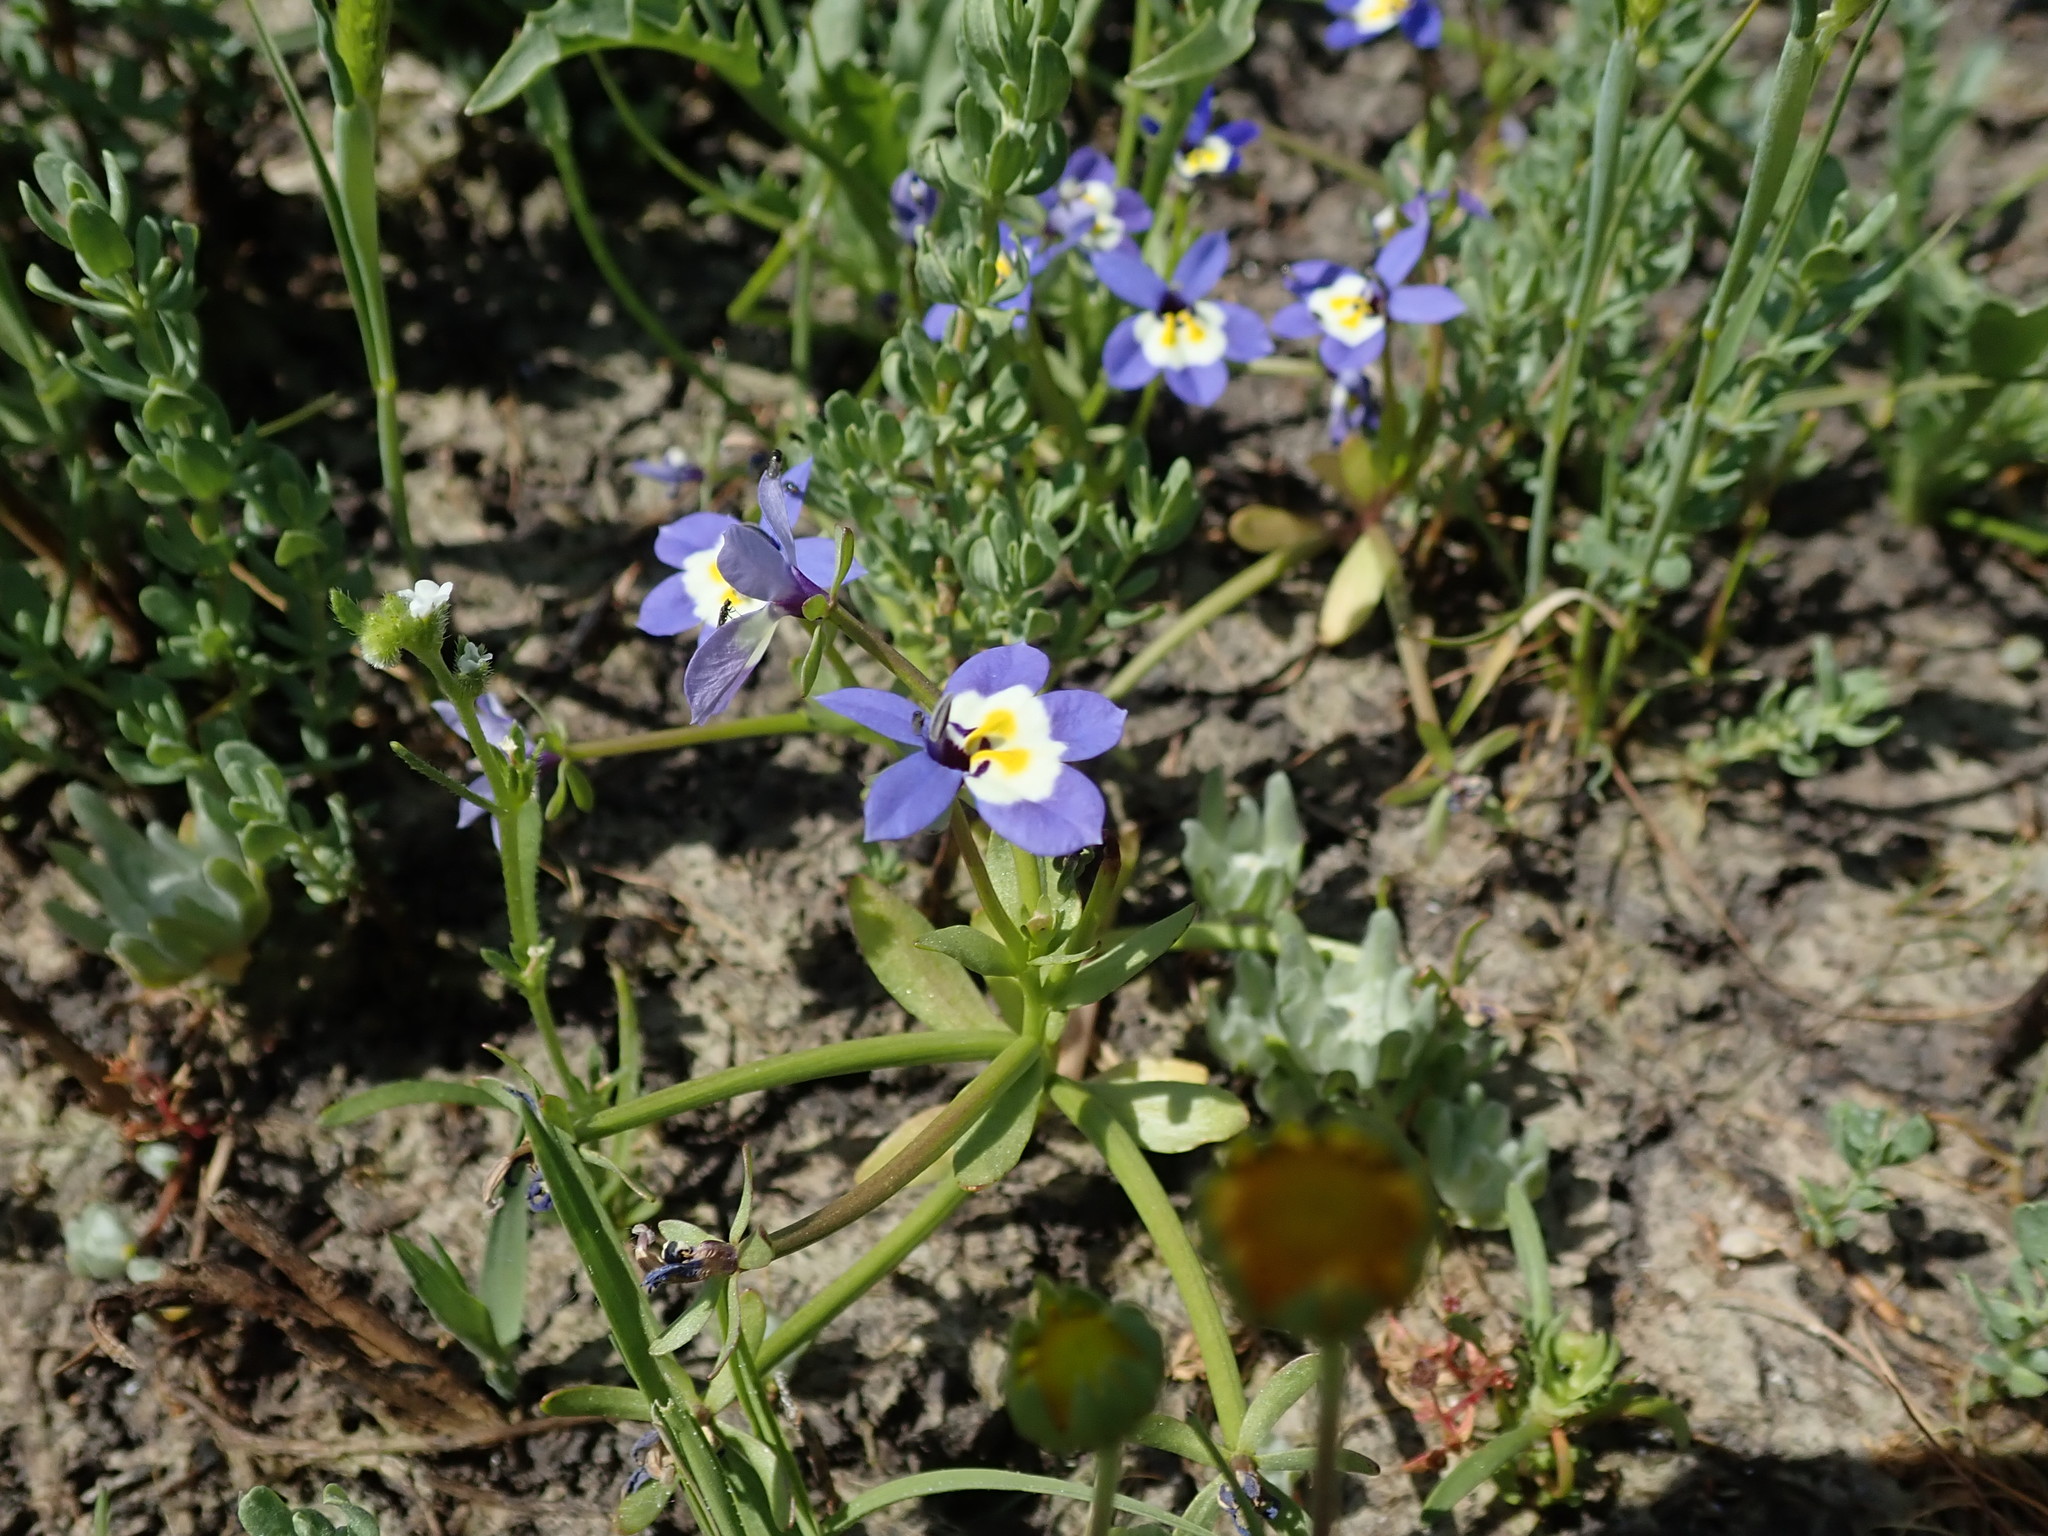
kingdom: Plantae
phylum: Tracheophyta
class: Magnoliopsida
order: Asterales
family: Campanulaceae
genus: Downingia
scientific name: Downingia pulchella
